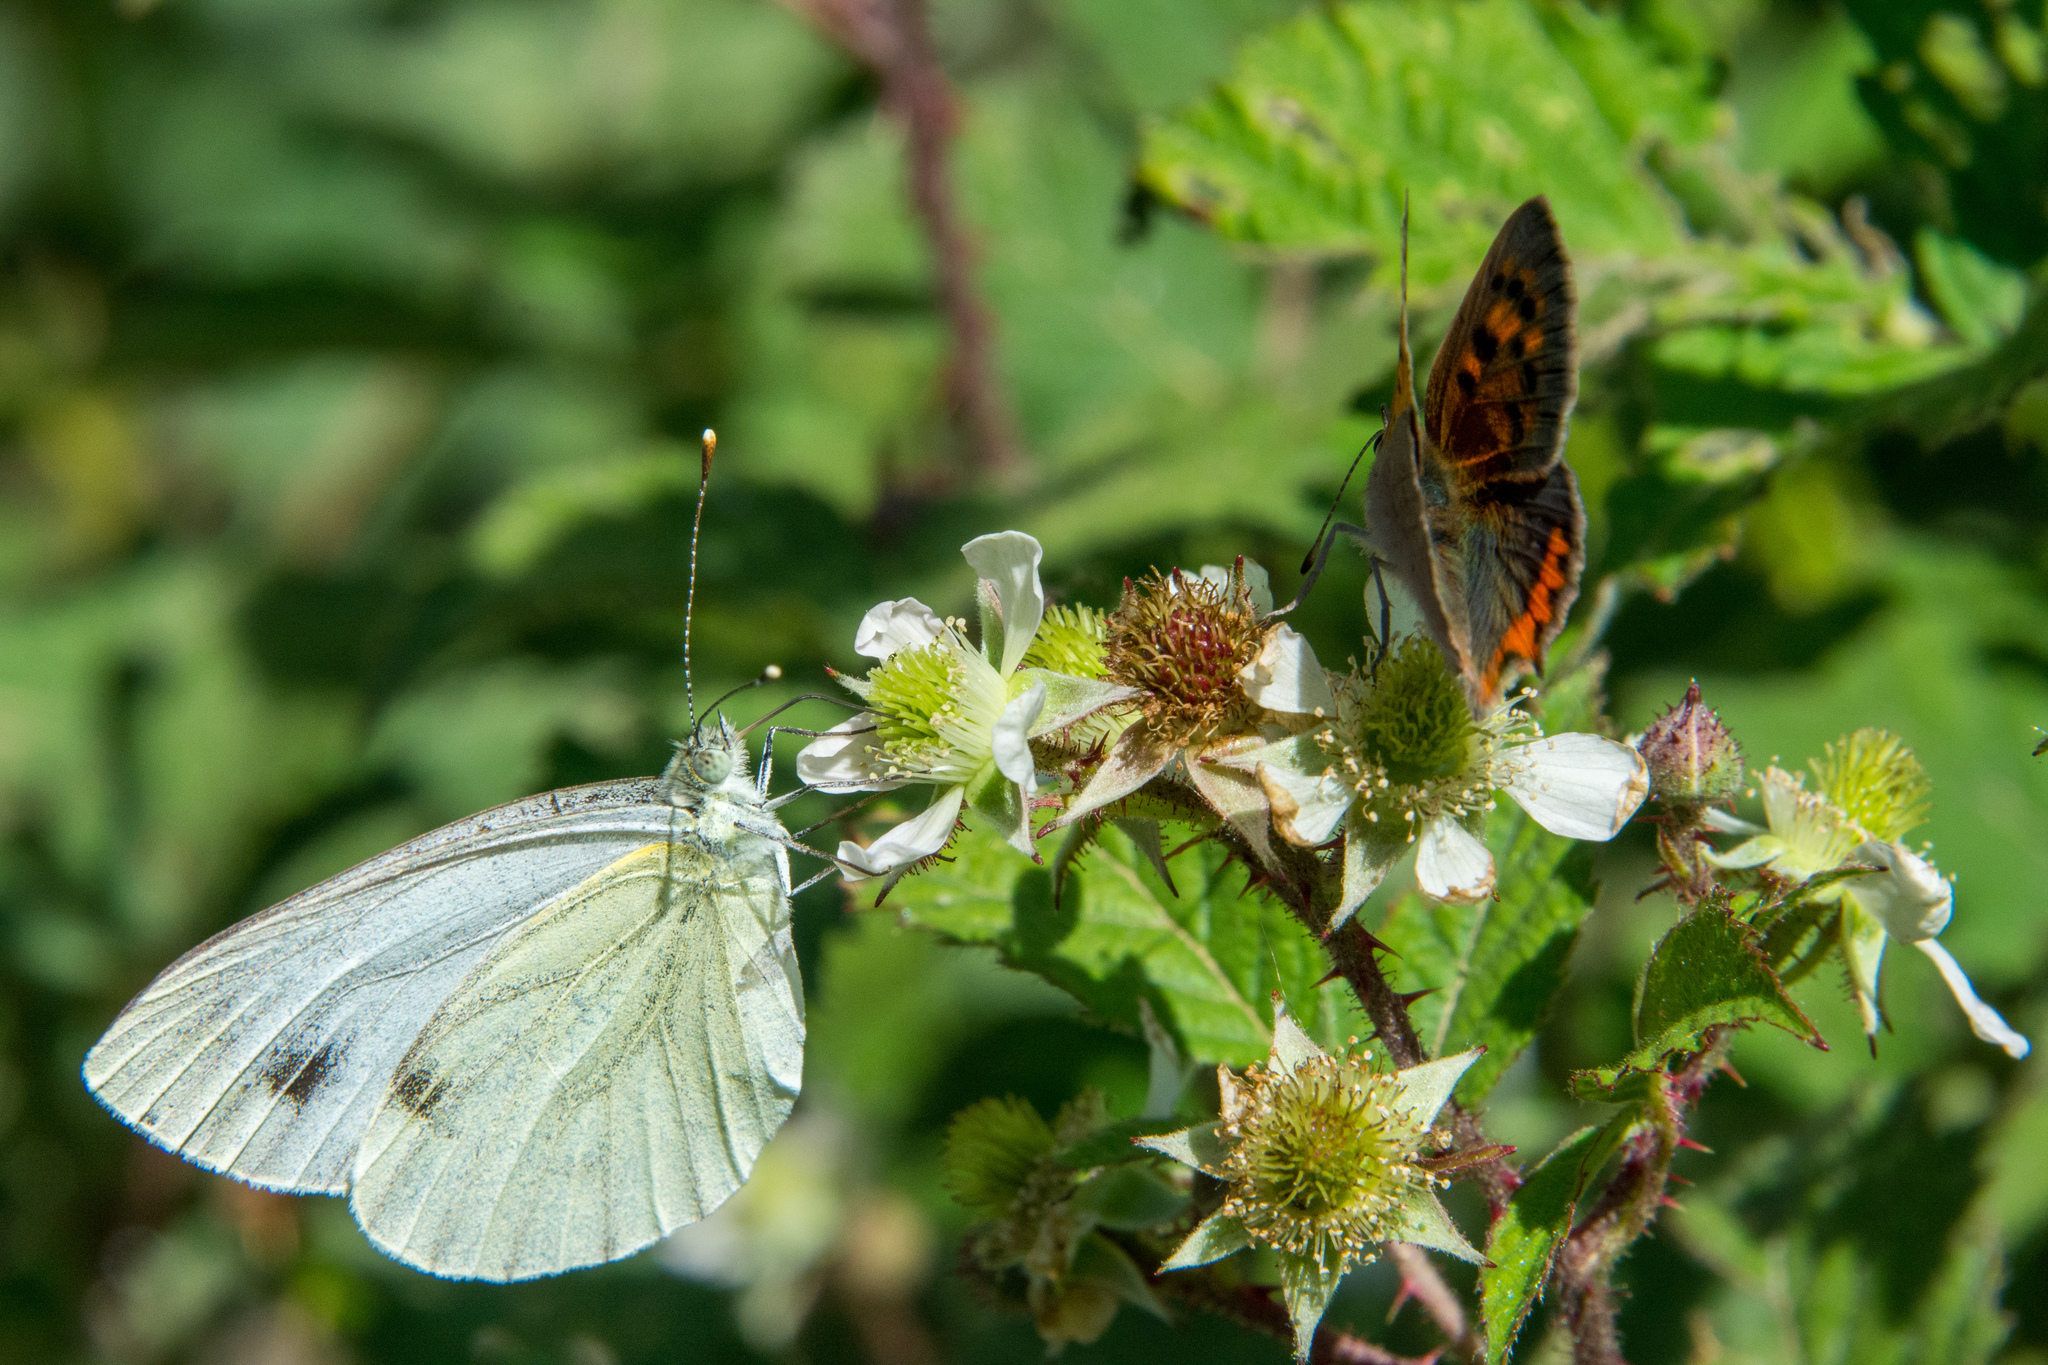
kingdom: Animalia
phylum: Arthropoda
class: Insecta
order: Lepidoptera
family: Pieridae
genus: Pieris
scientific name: Pieris napi
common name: Green-veined white
